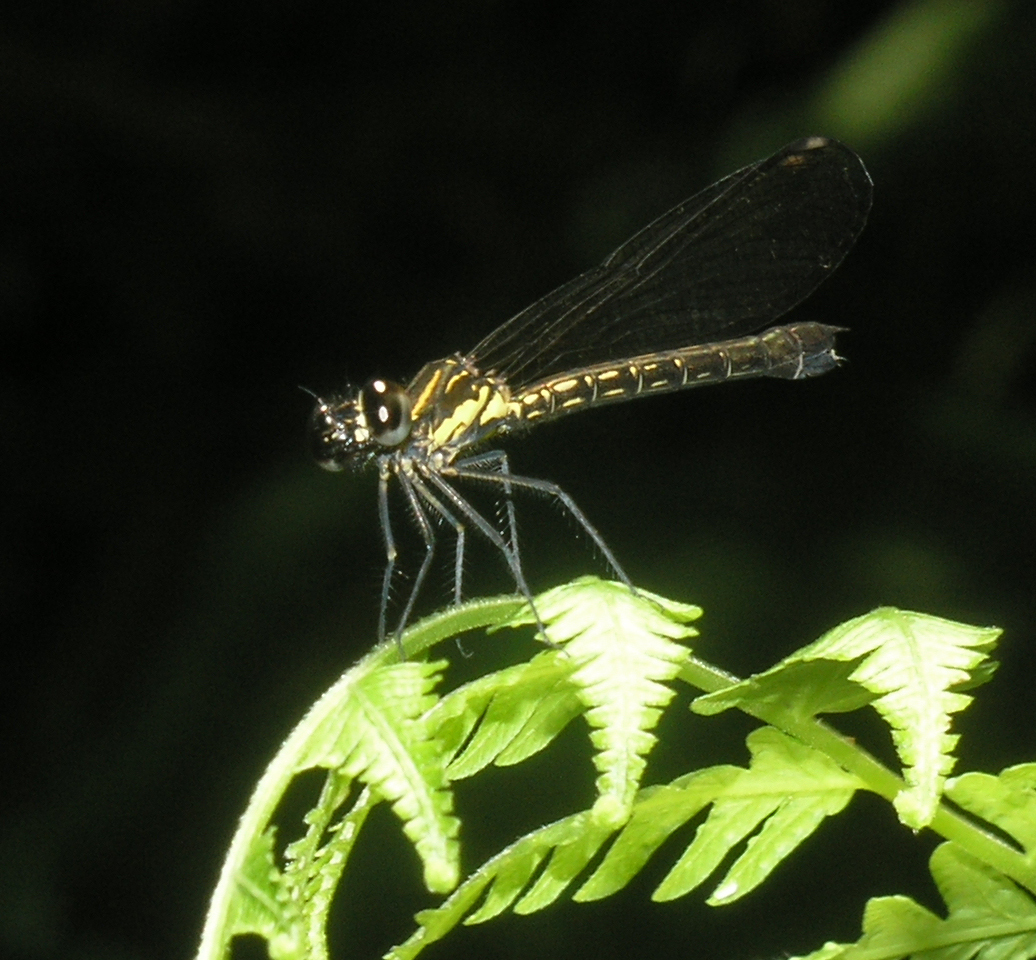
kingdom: Animalia
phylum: Arthropoda
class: Insecta
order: Odonata
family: Chlorocyphidae
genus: Heliocypha
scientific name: Heliocypha fenestrata
